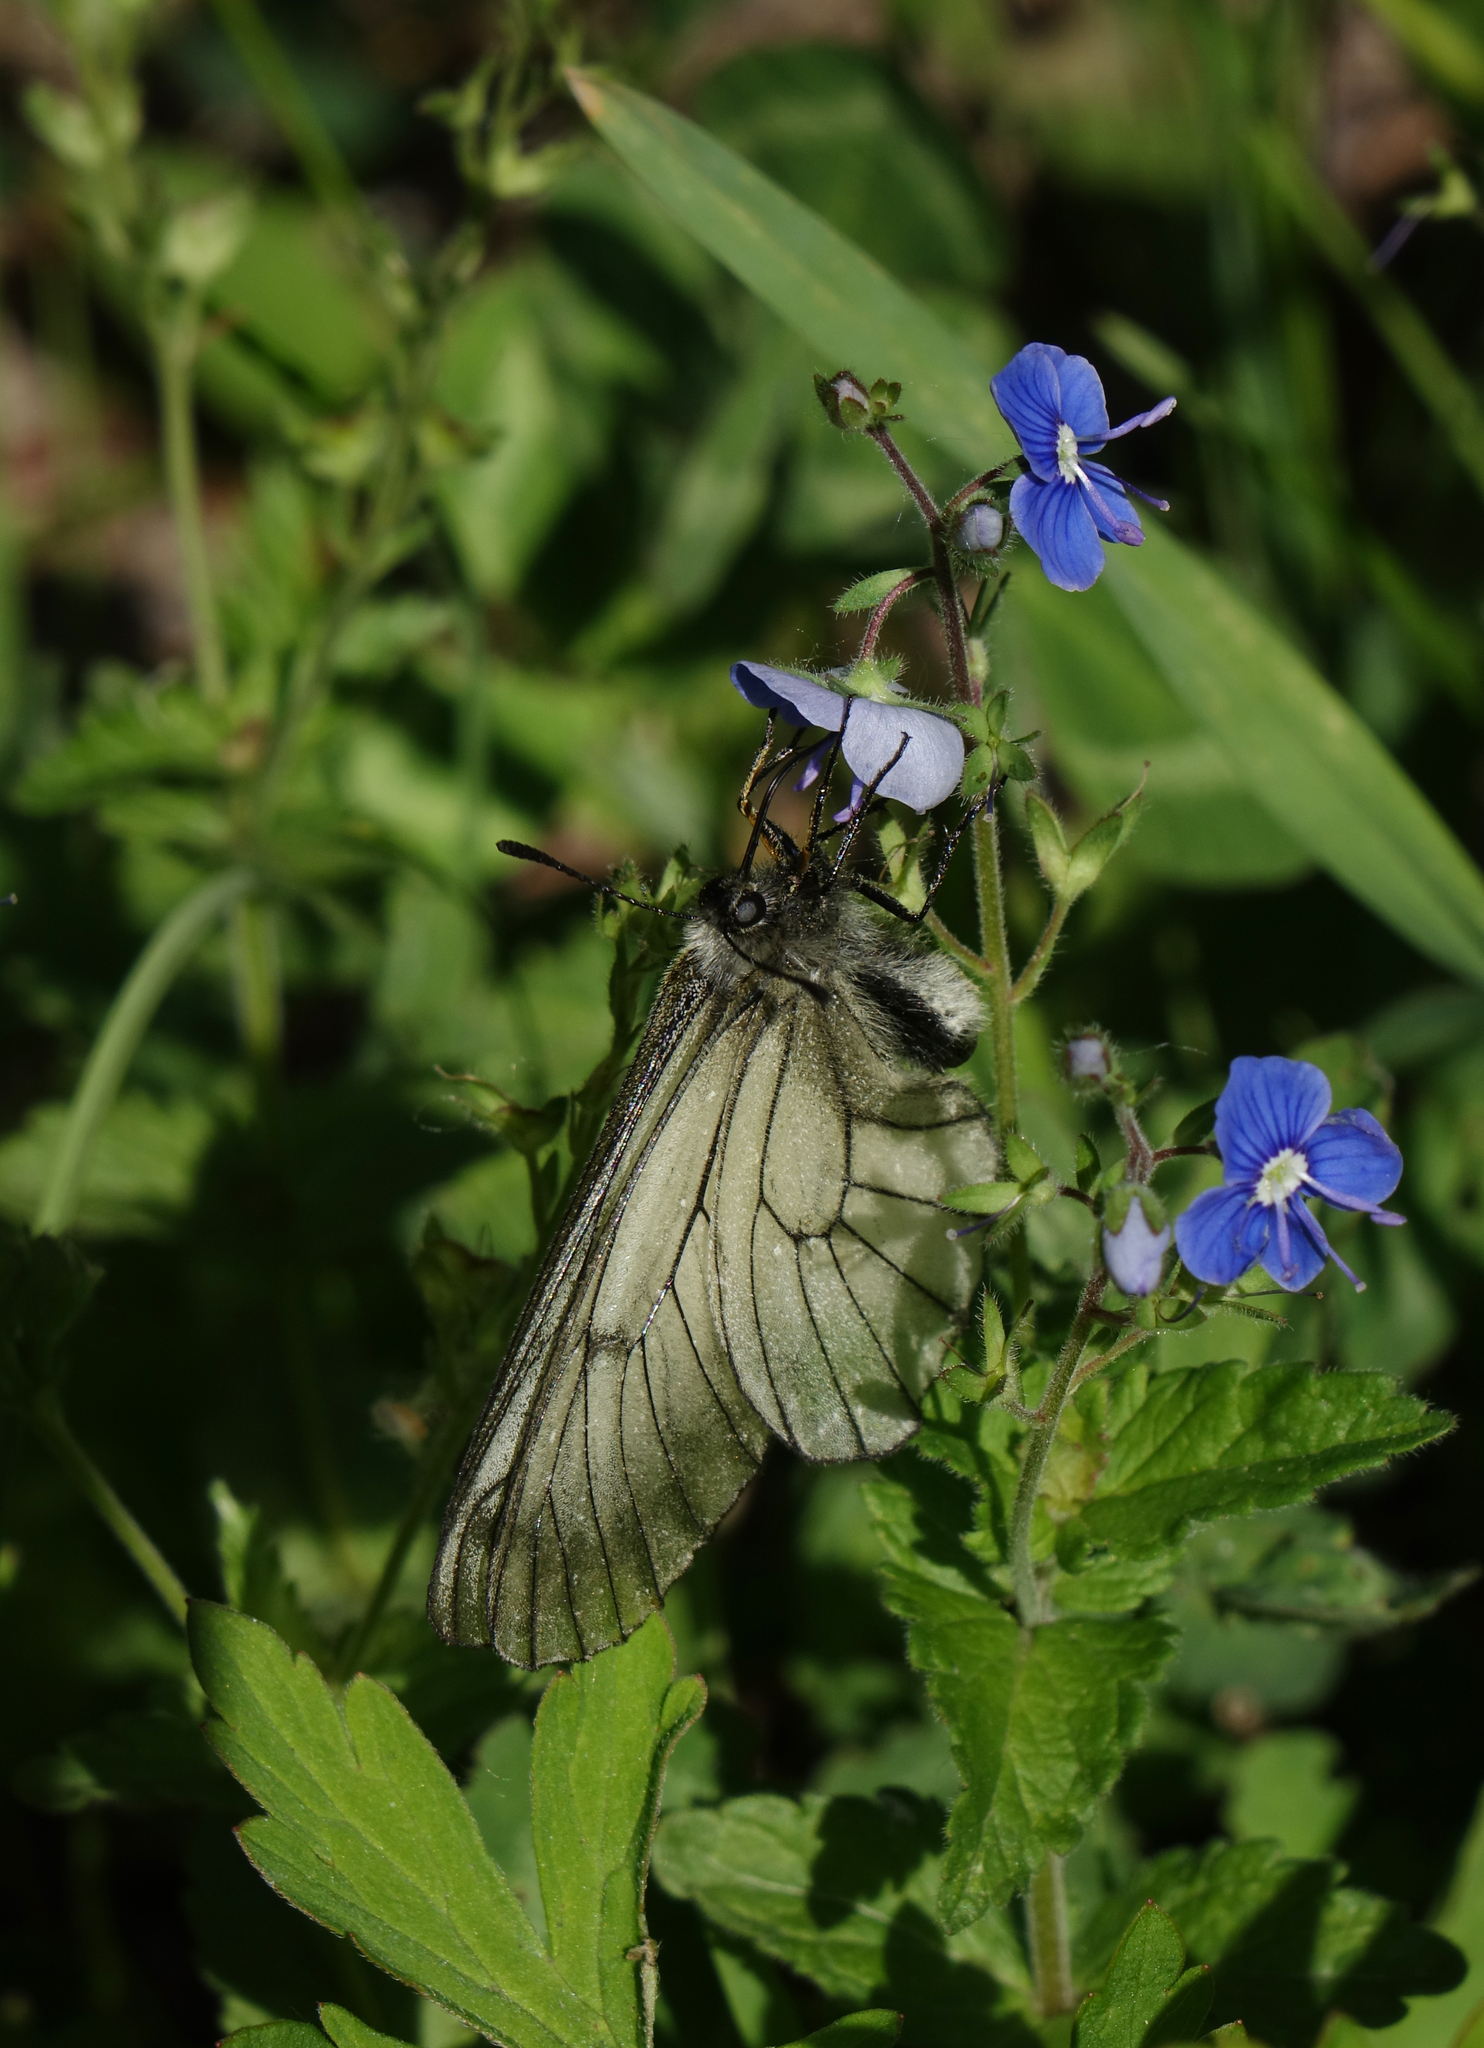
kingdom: Animalia
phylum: Arthropoda
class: Insecta
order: Lepidoptera
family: Papilionidae
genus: Parnassius
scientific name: Parnassius stubbendorfii
